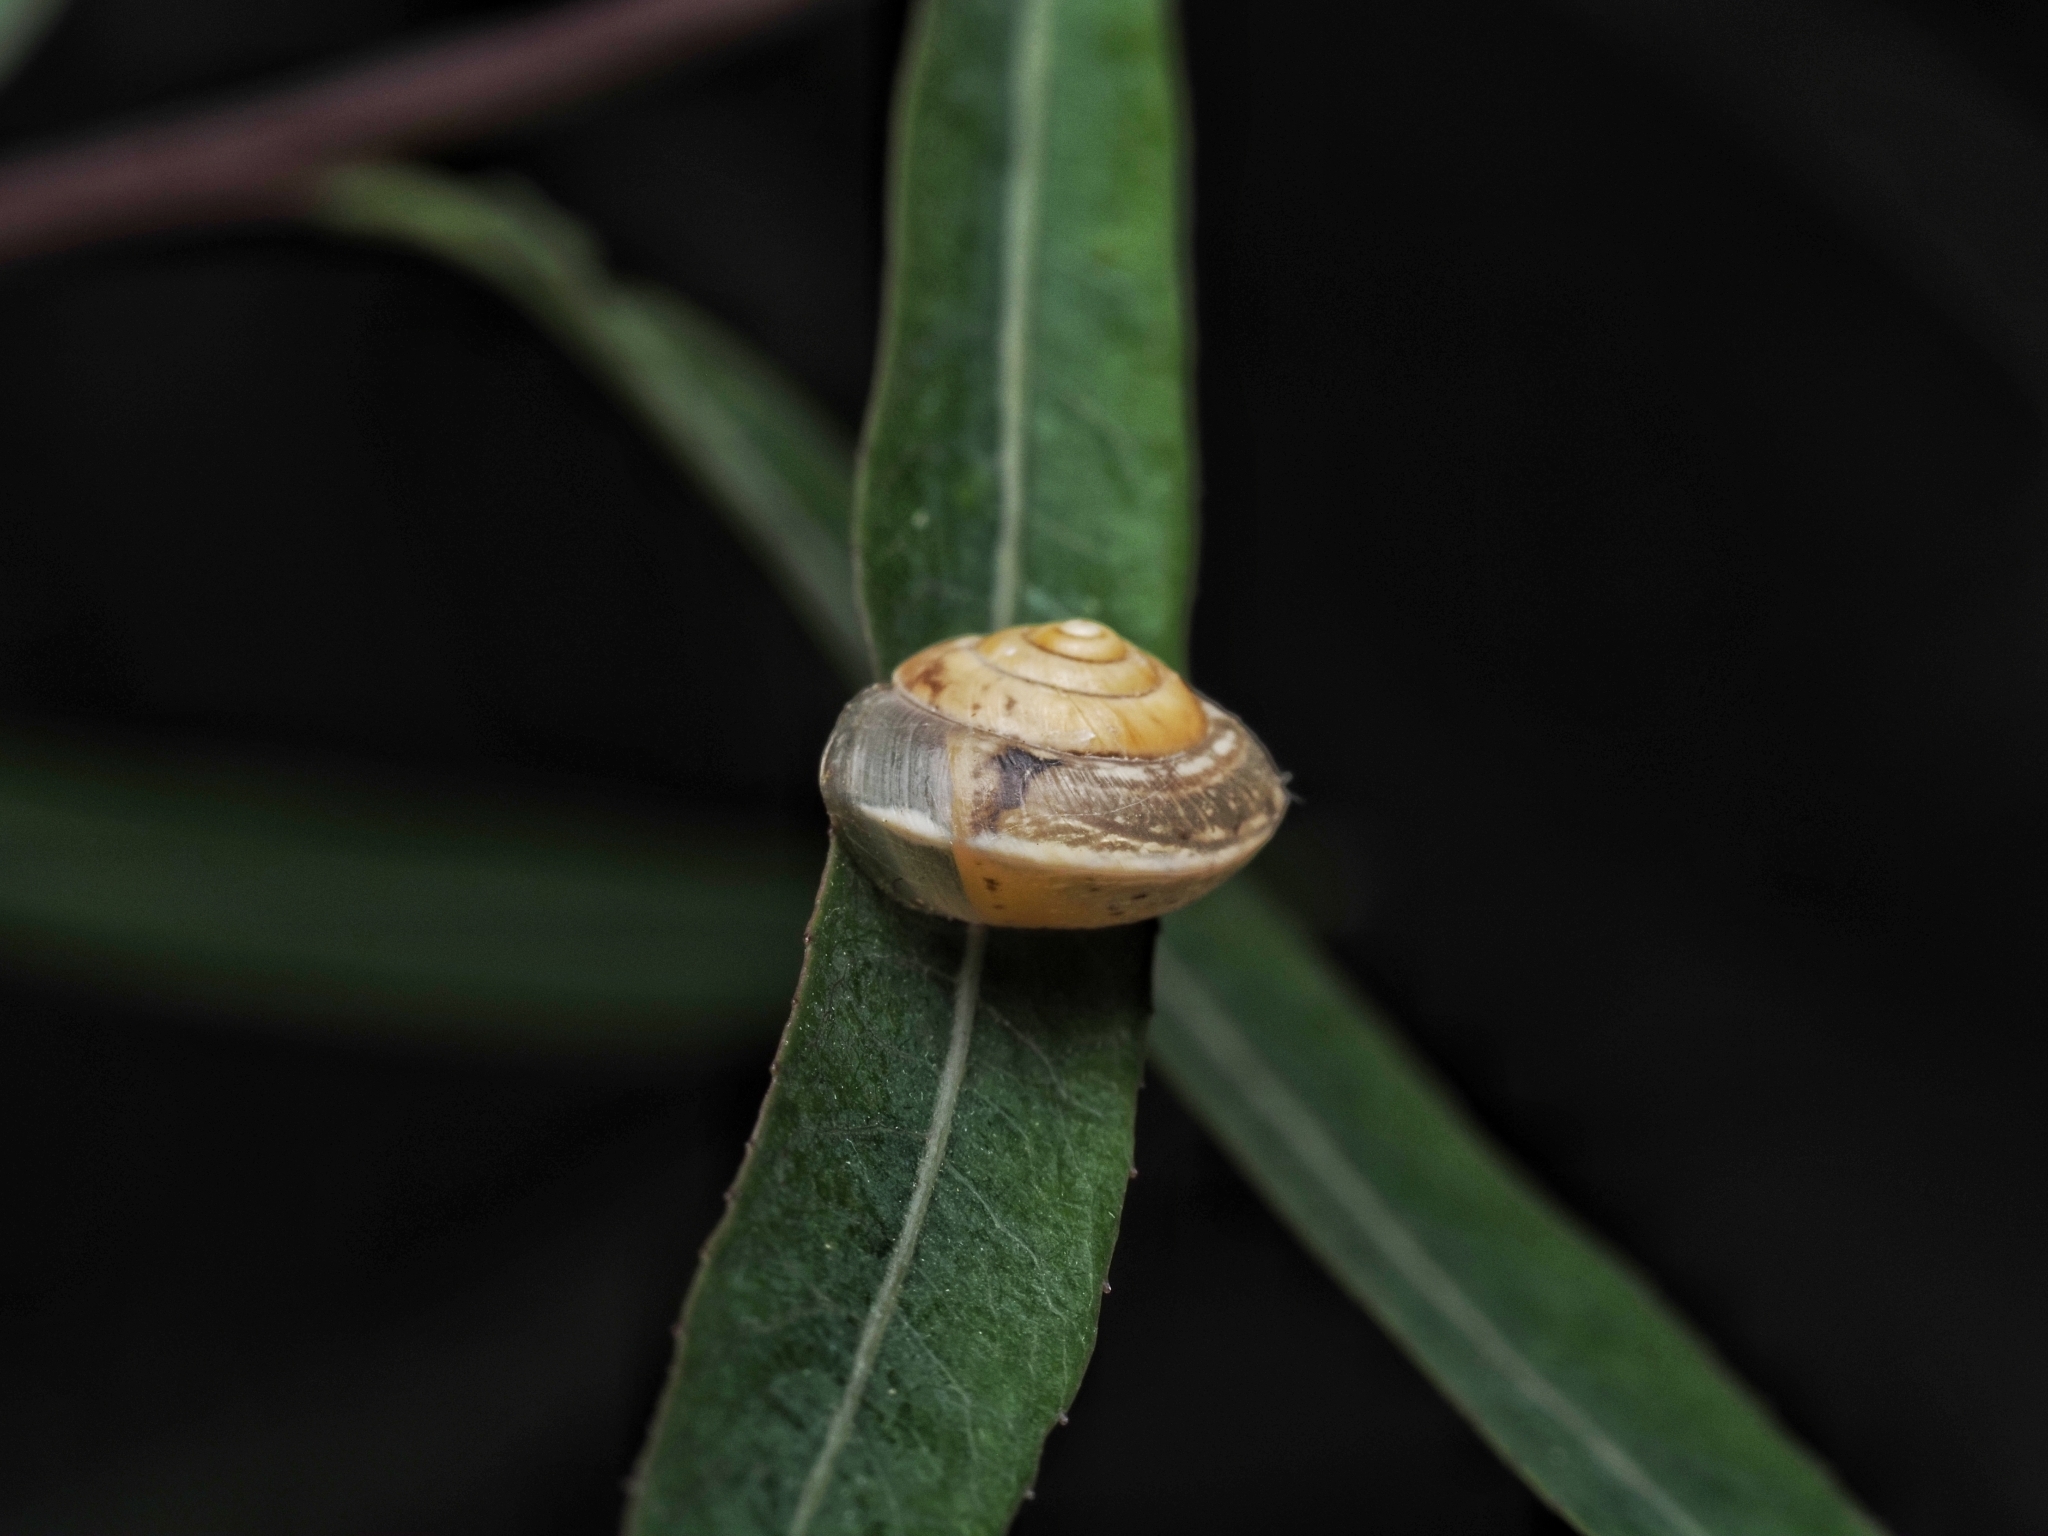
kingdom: Animalia
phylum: Mollusca
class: Gastropoda
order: Stylommatophora
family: Hygromiidae
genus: Hygromia
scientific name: Hygromia cinctella
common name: Girdled snail
